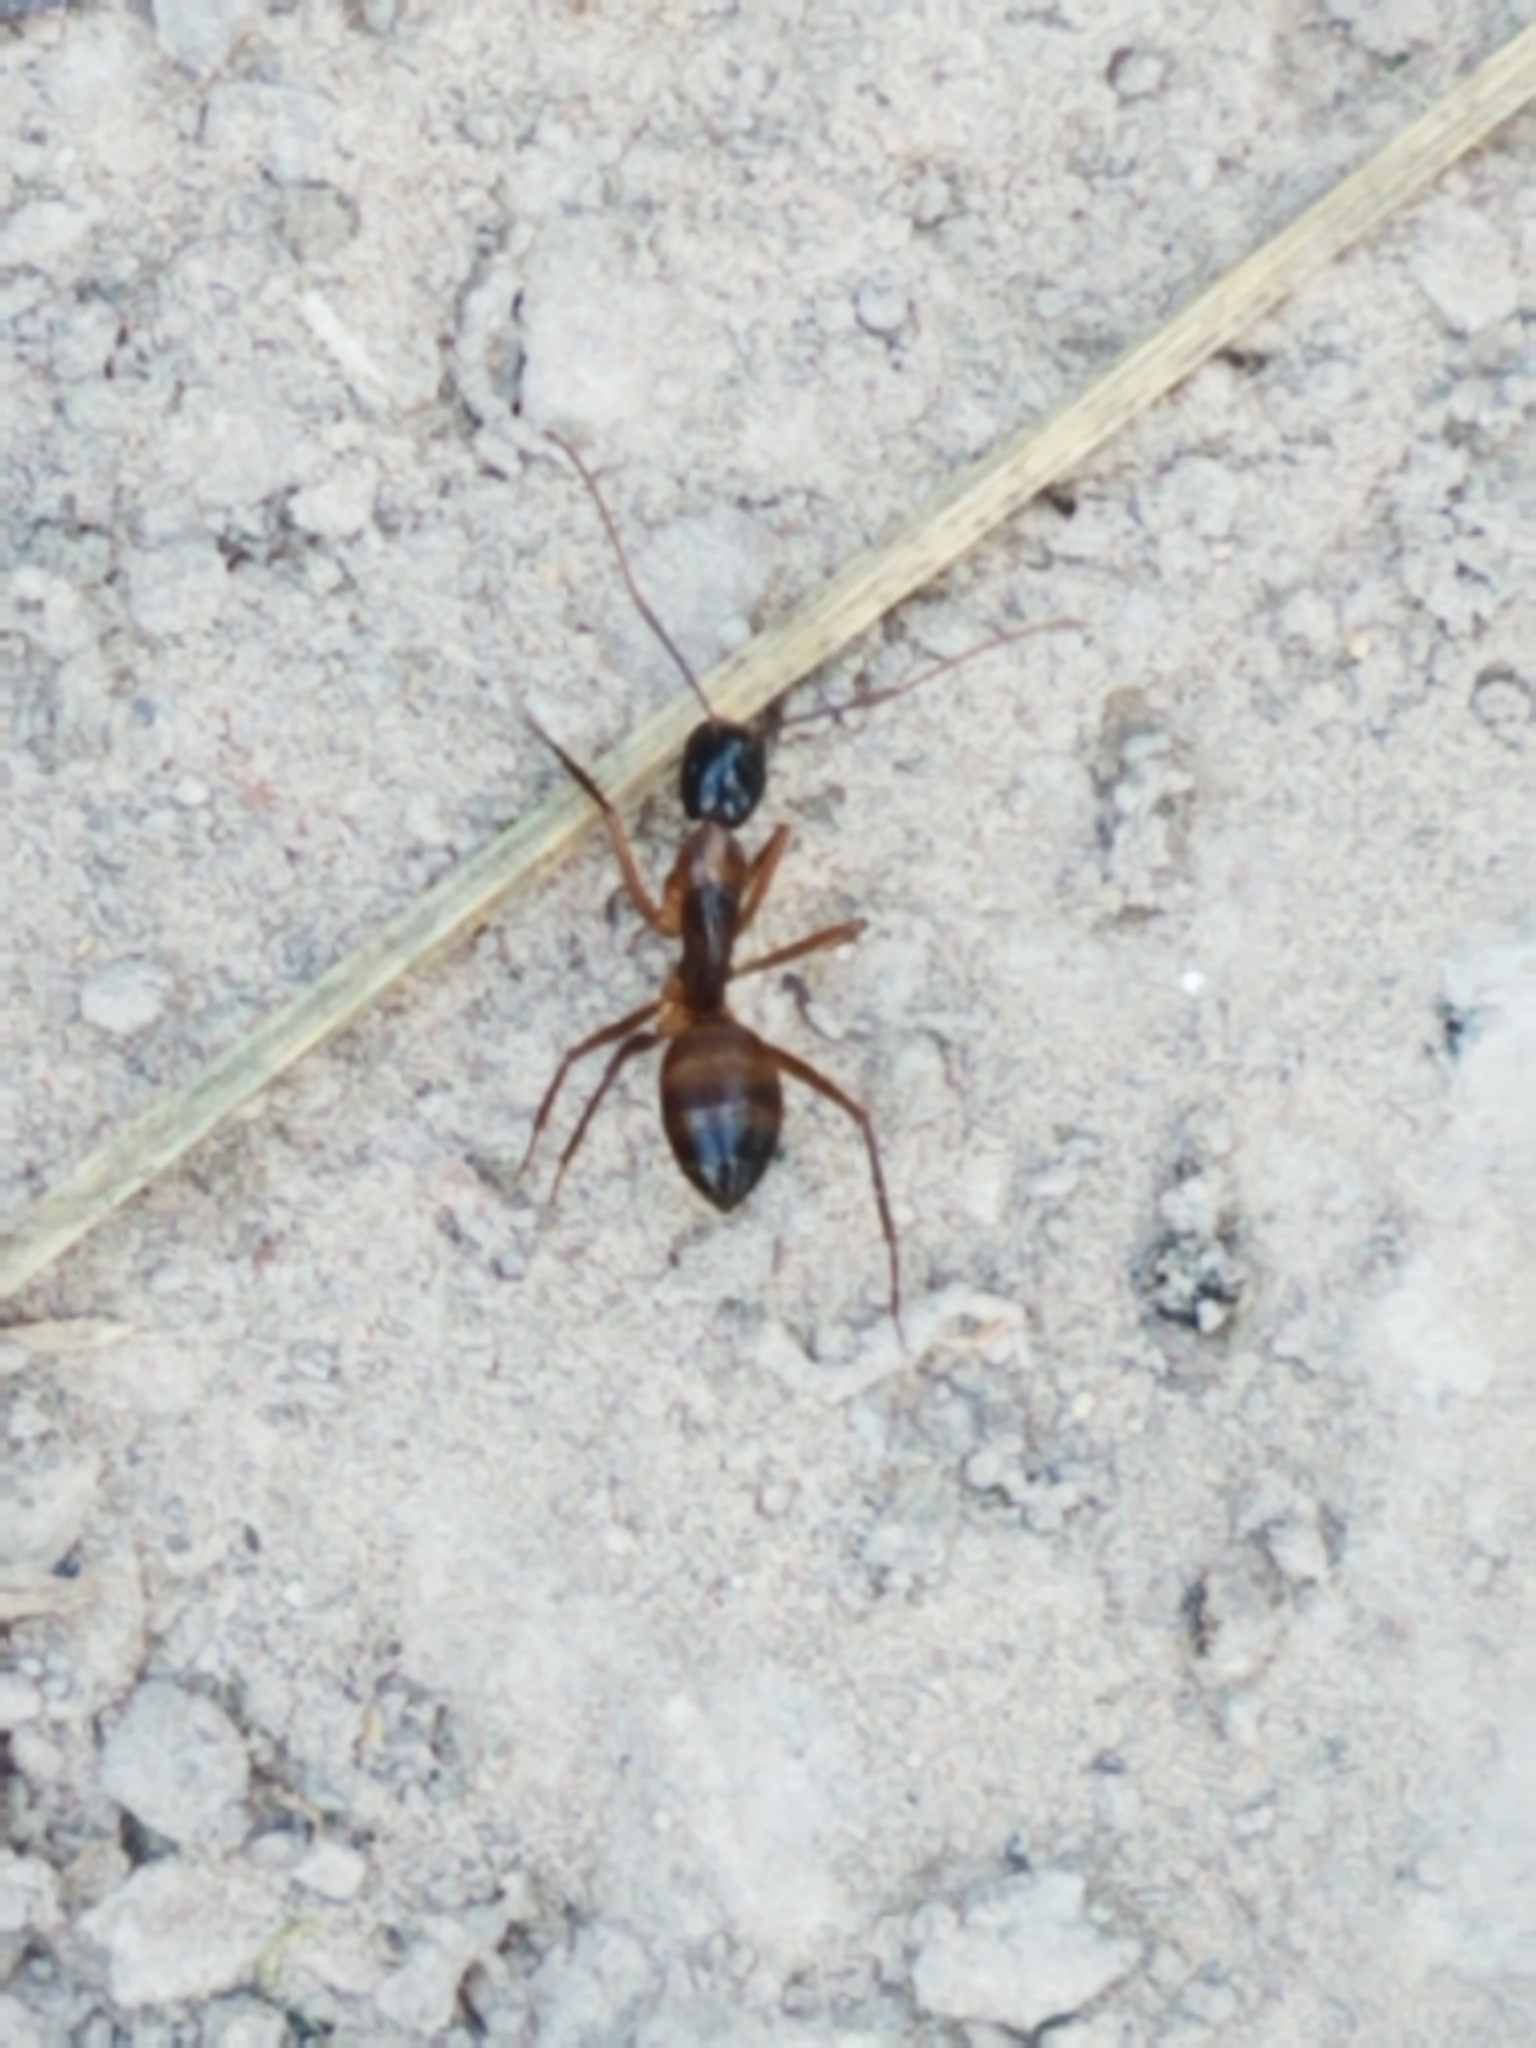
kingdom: Animalia
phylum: Arthropoda
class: Insecta
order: Hymenoptera
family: Formicidae
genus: Camponotus
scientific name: Camponotus americanus
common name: American carpenter ant
